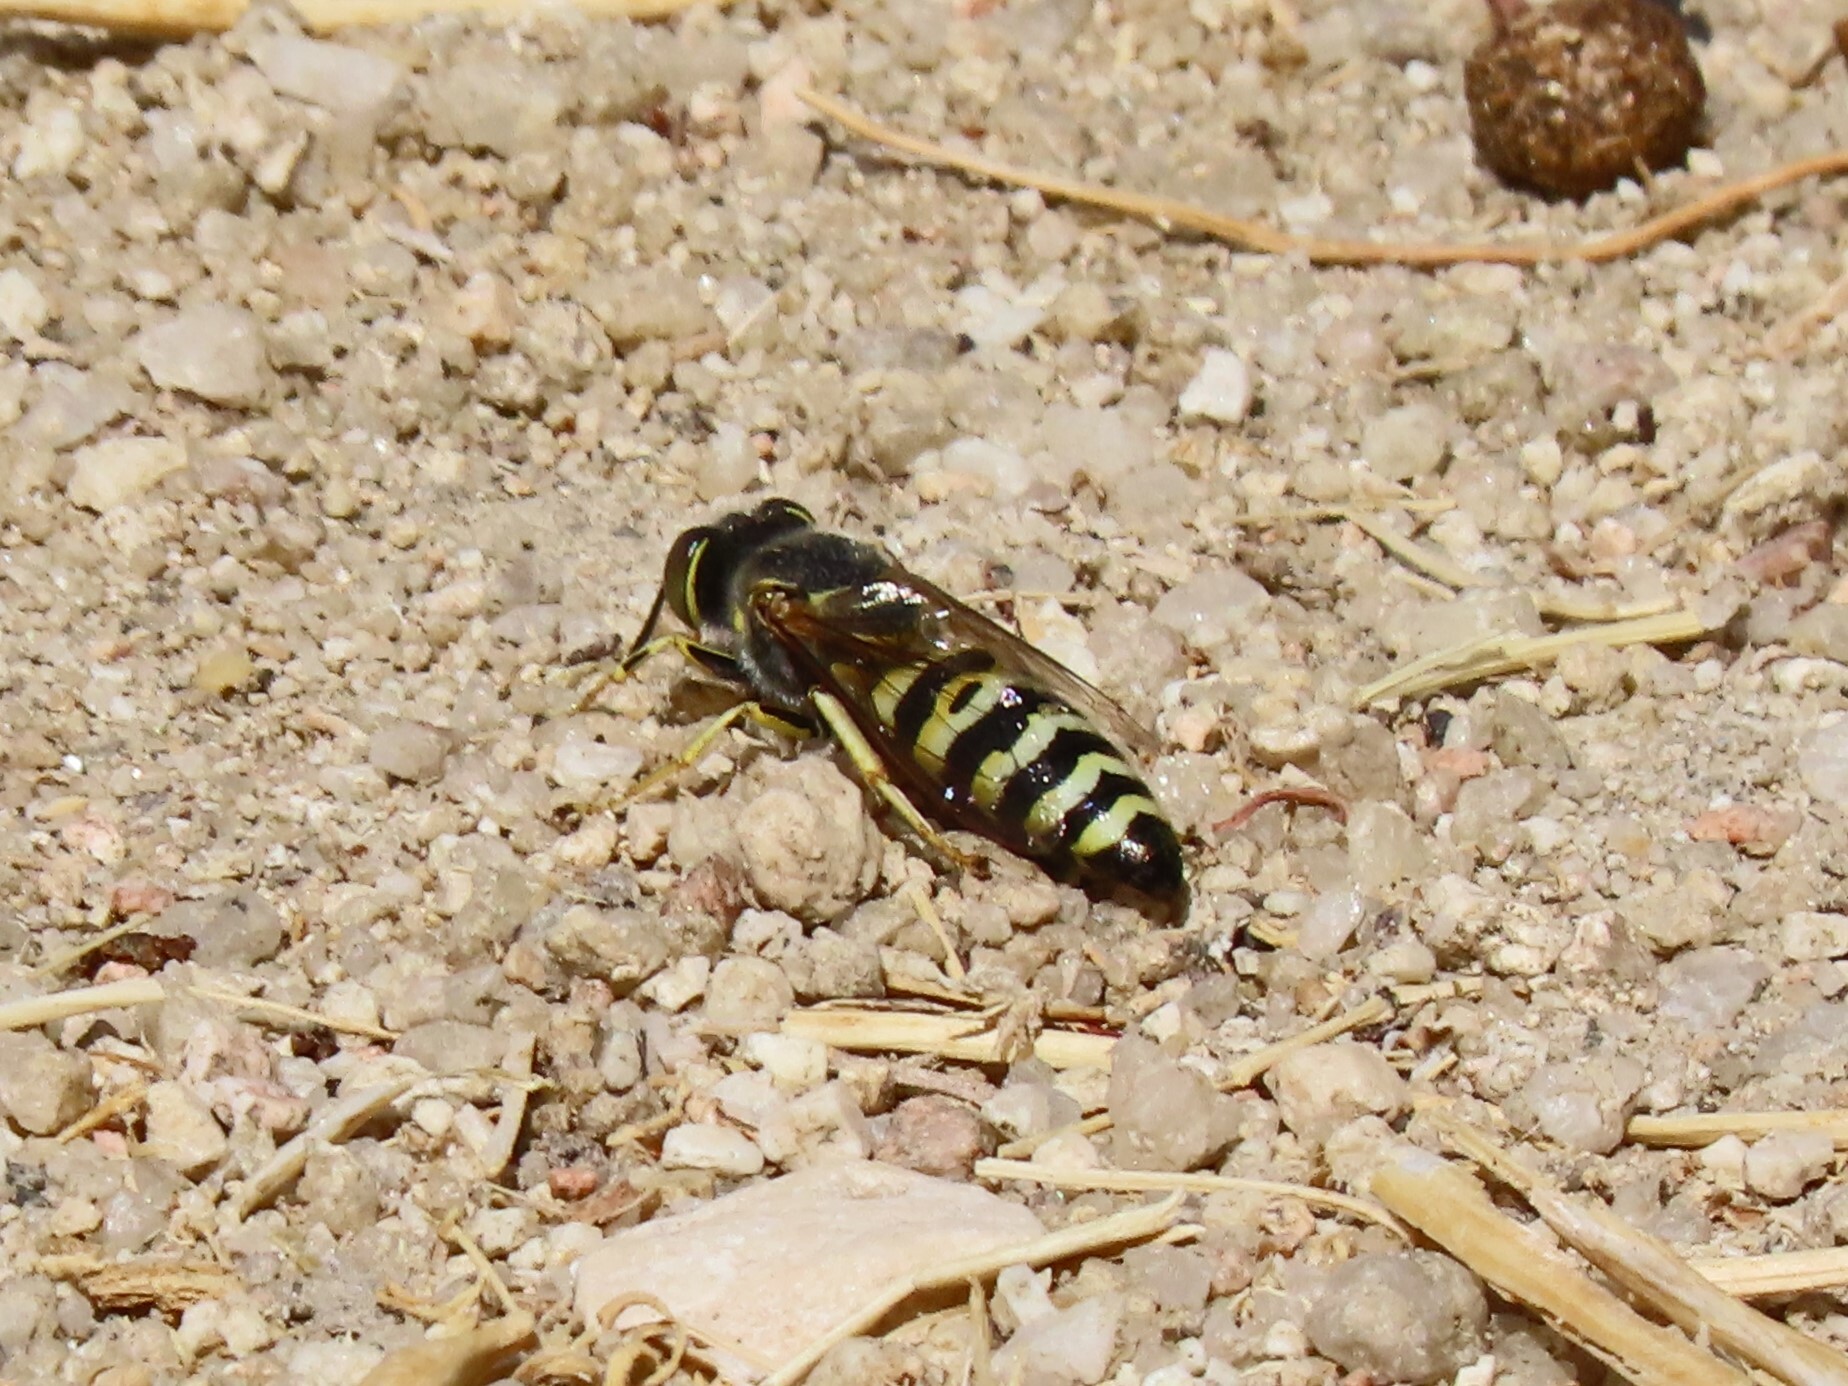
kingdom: Animalia
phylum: Arthropoda
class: Insecta
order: Hymenoptera
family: Crabronidae
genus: Bembix
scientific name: Bembix oculata
